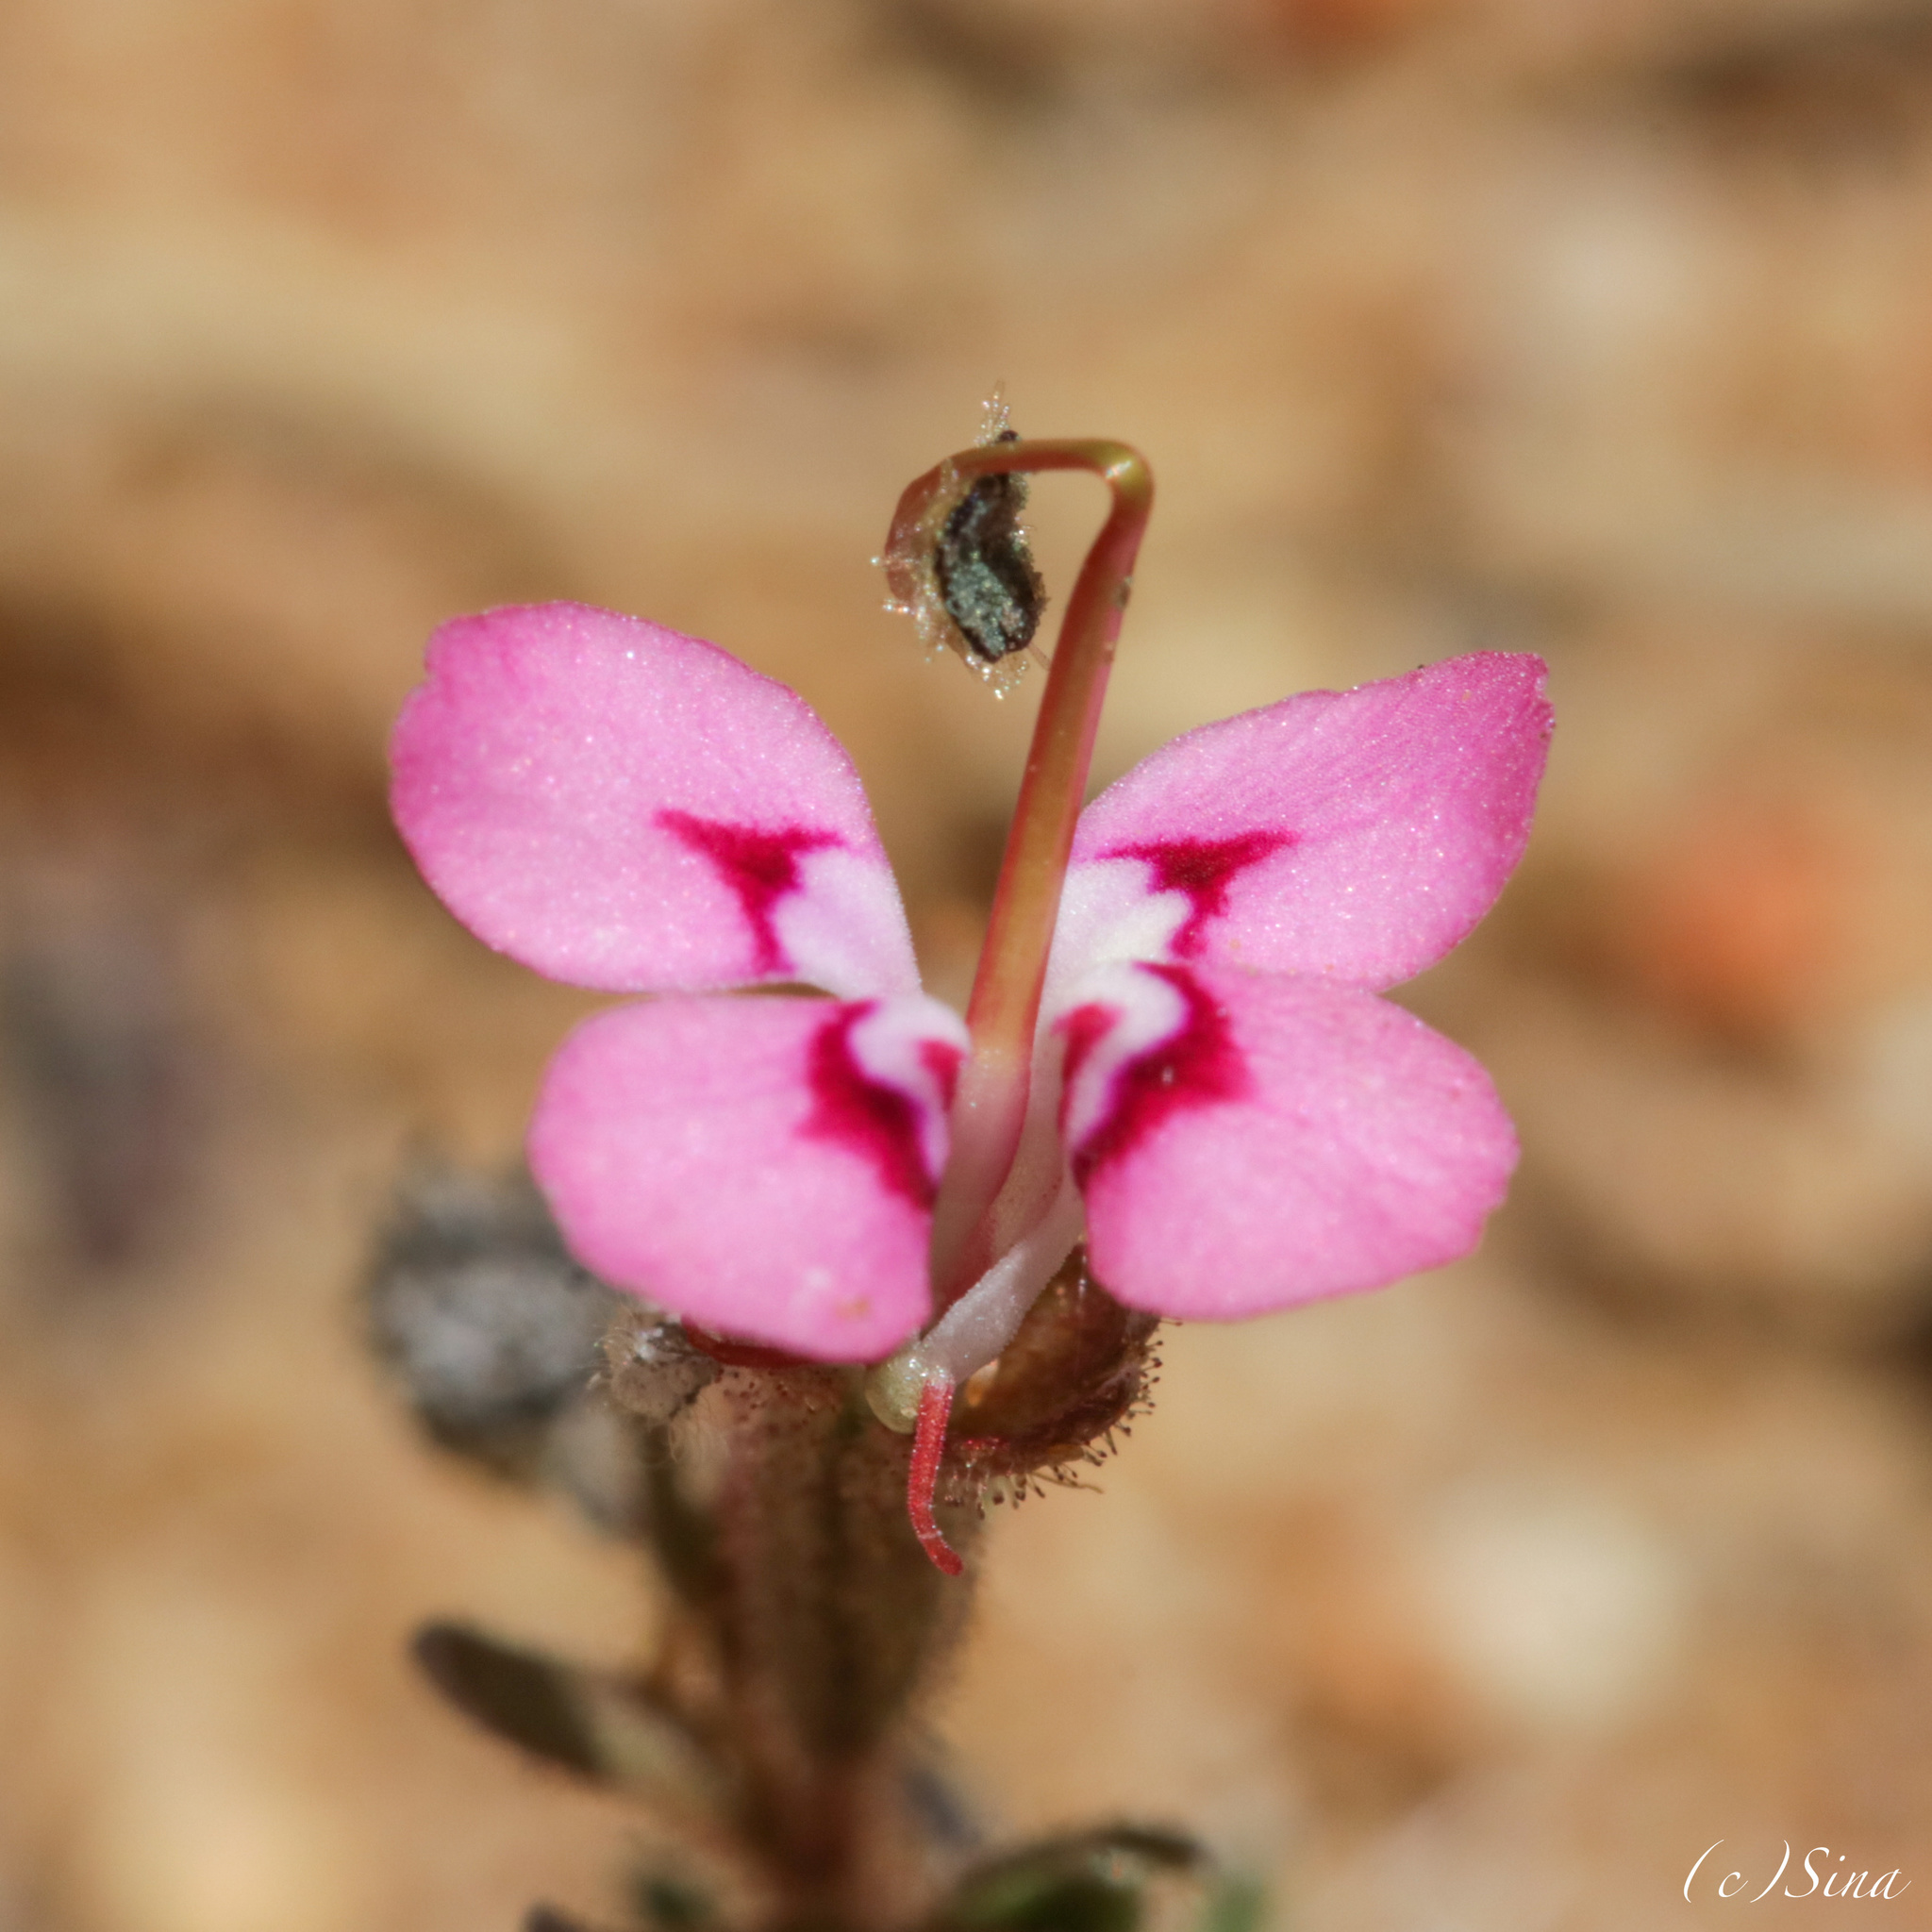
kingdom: Plantae
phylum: Tracheophyta
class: Magnoliopsida
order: Asterales
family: Stylidiaceae
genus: Stylidium
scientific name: Stylidium dielsianum
